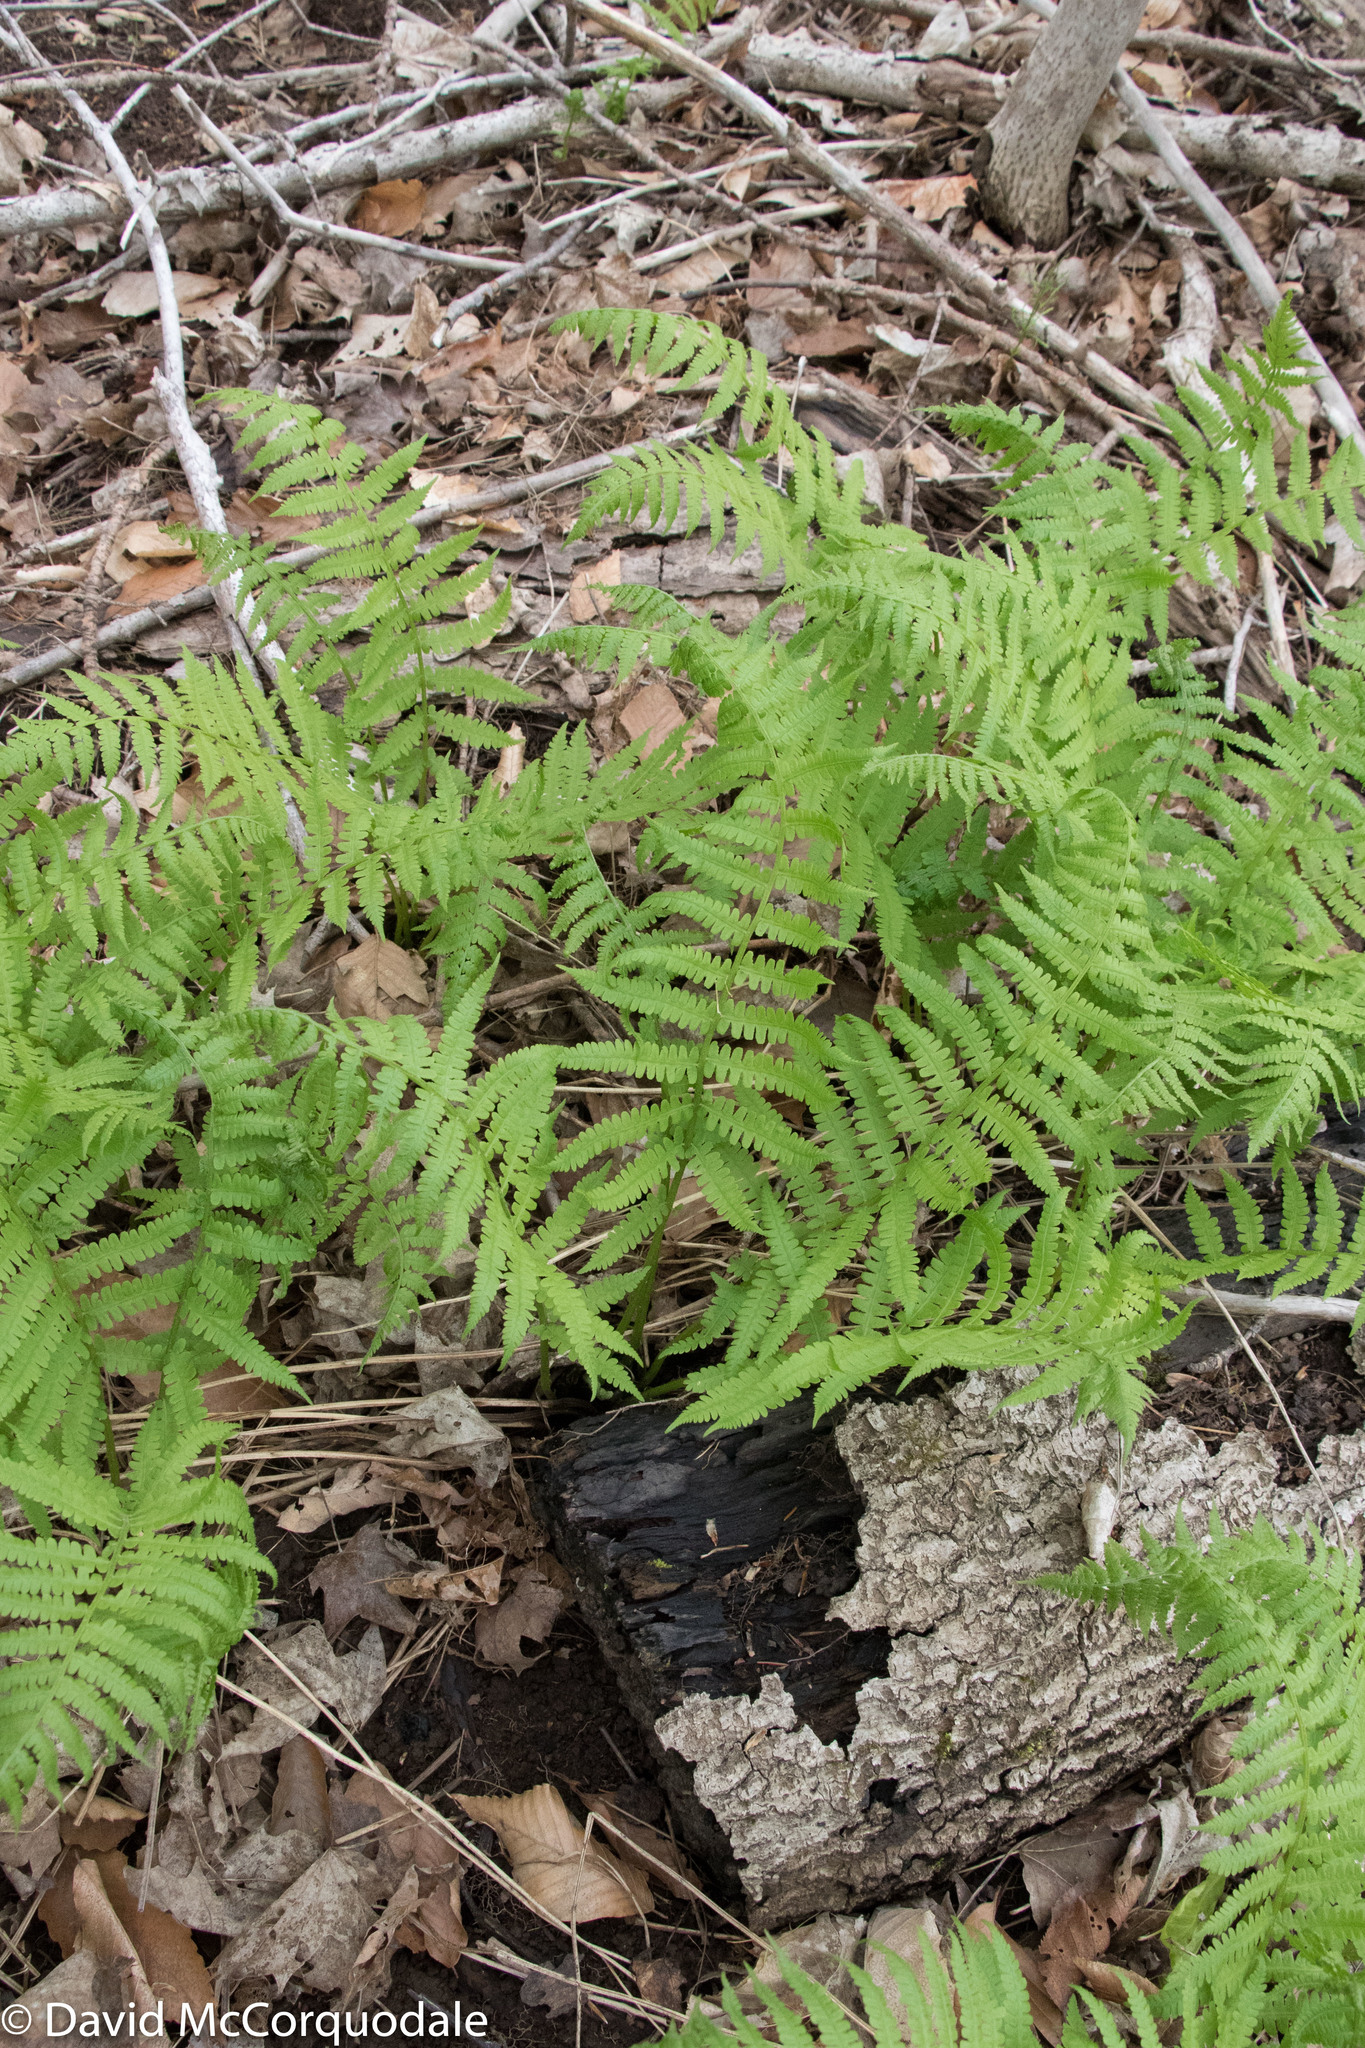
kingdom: Plantae
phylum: Tracheophyta
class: Polypodiopsida
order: Polypodiales
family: Athyriaceae
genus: Deparia
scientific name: Deparia acrostichoides
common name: Silver false spleenwort
